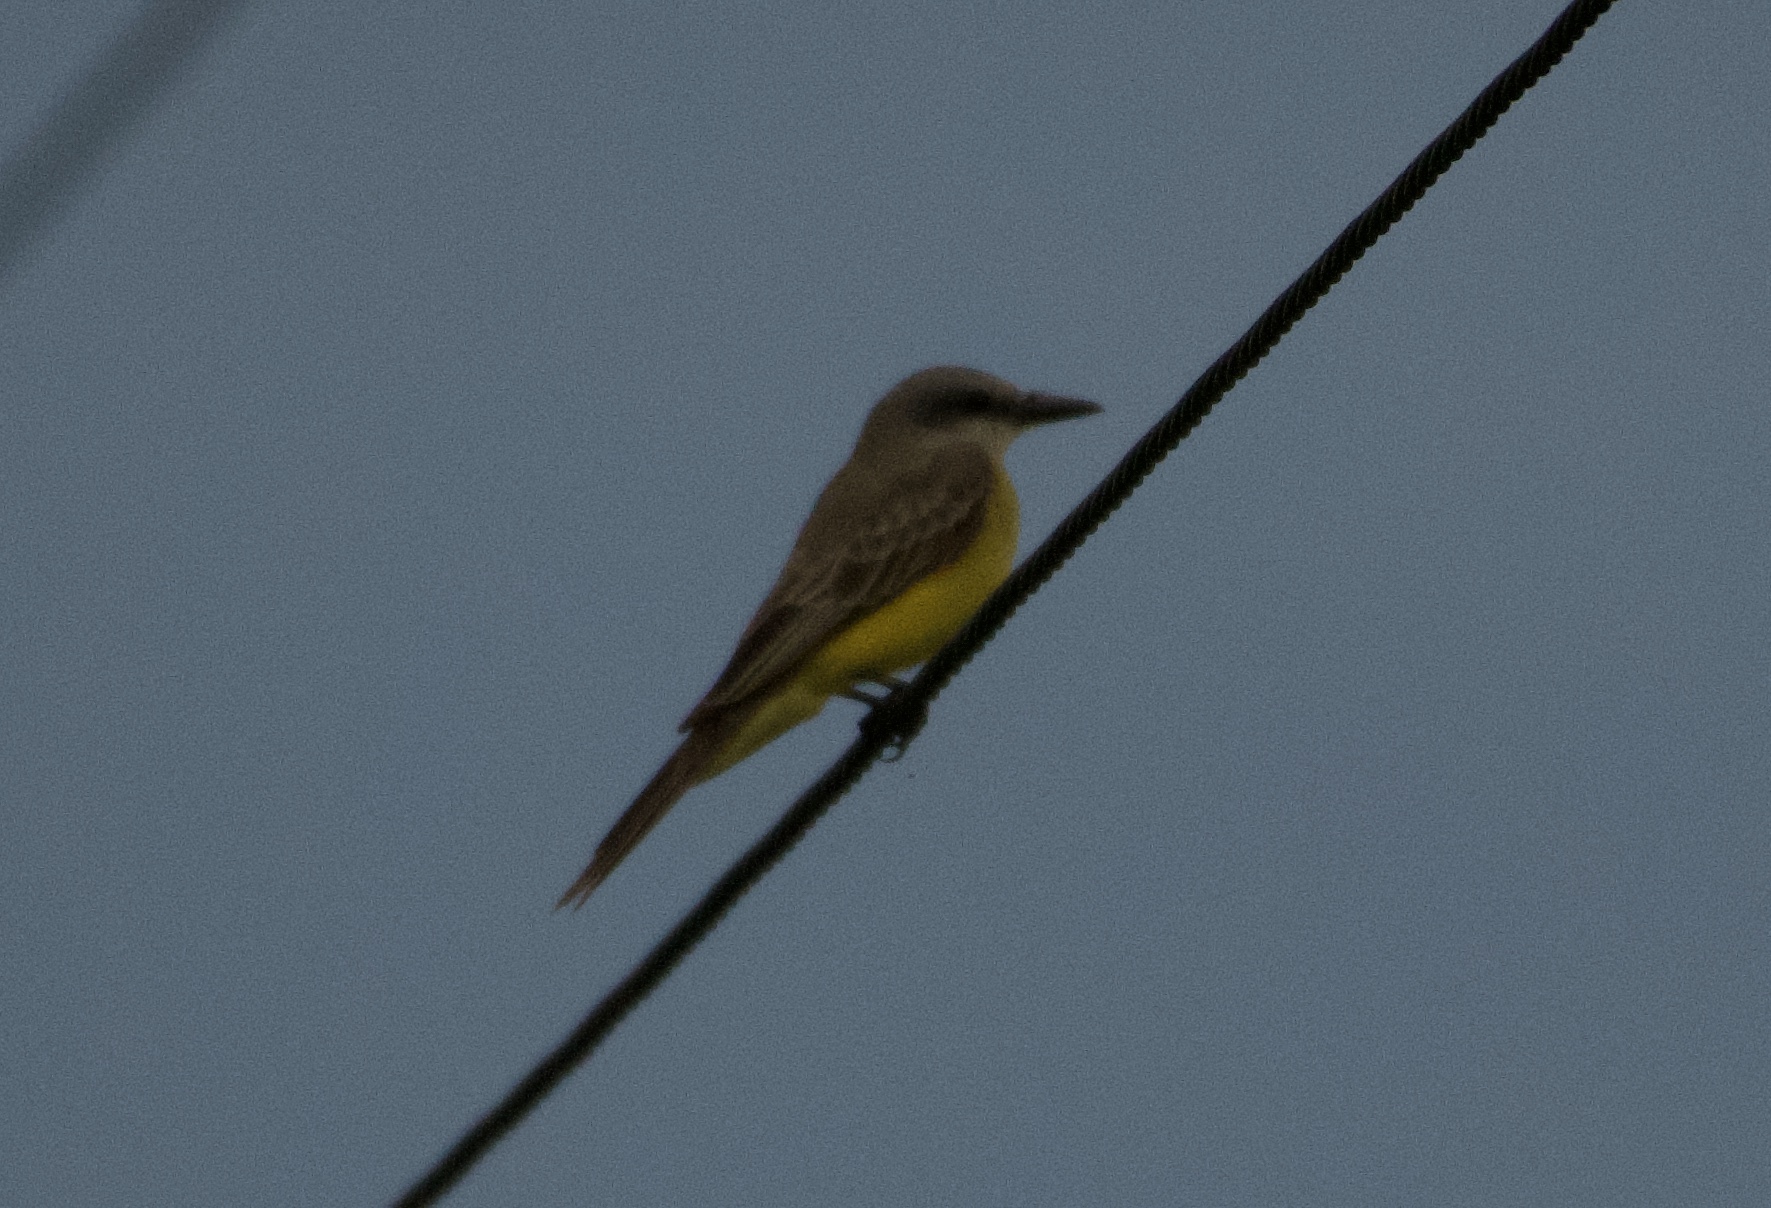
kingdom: Animalia
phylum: Chordata
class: Aves
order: Passeriformes
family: Tyrannidae
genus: Tyrannus
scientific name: Tyrannus melancholicus
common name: Tropical kingbird
